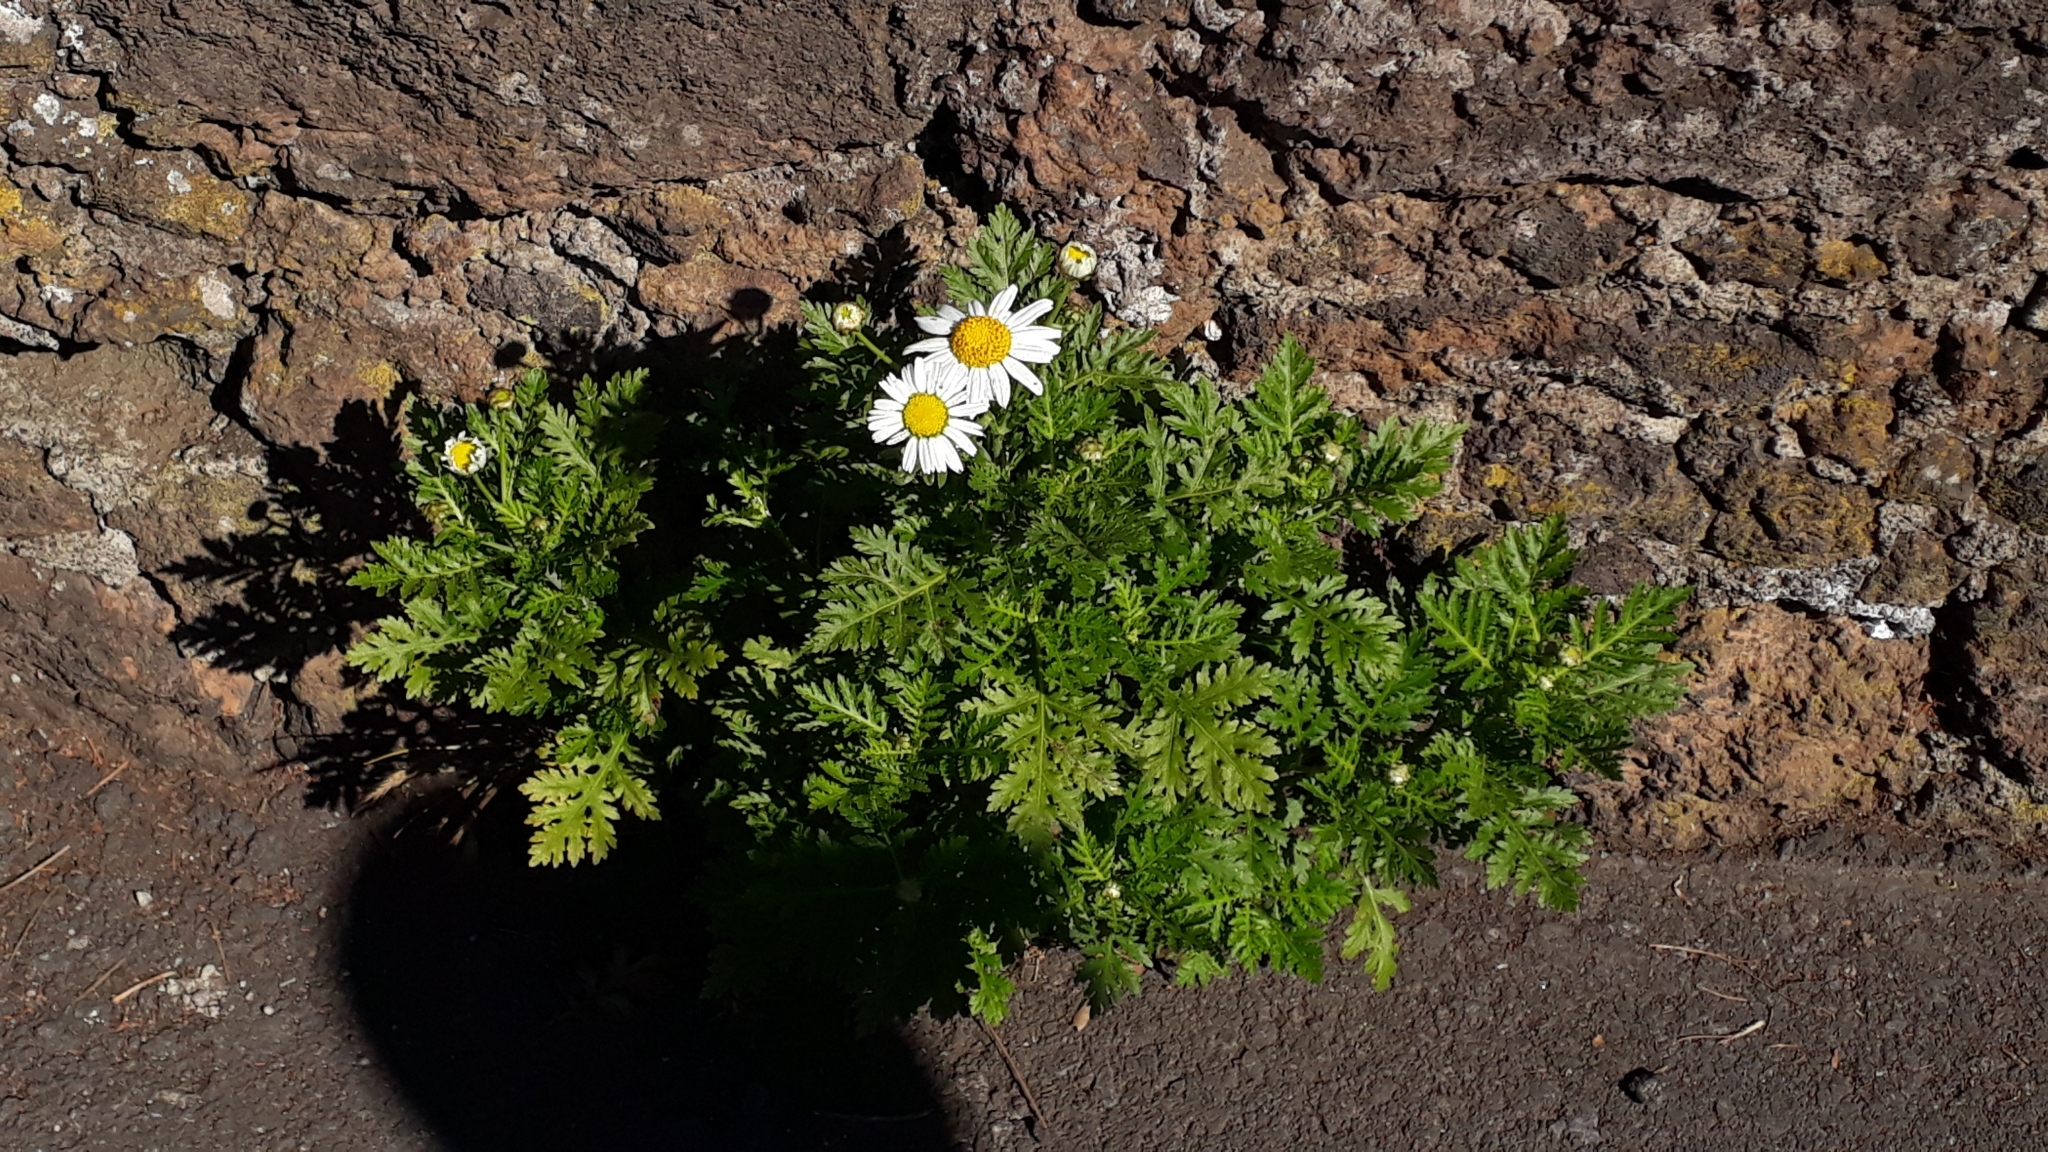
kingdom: Plantae
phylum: Tracheophyta
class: Magnoliopsida
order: Asterales
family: Asteraceae
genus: Argyranthemum
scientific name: Argyranthemum broussonetii
